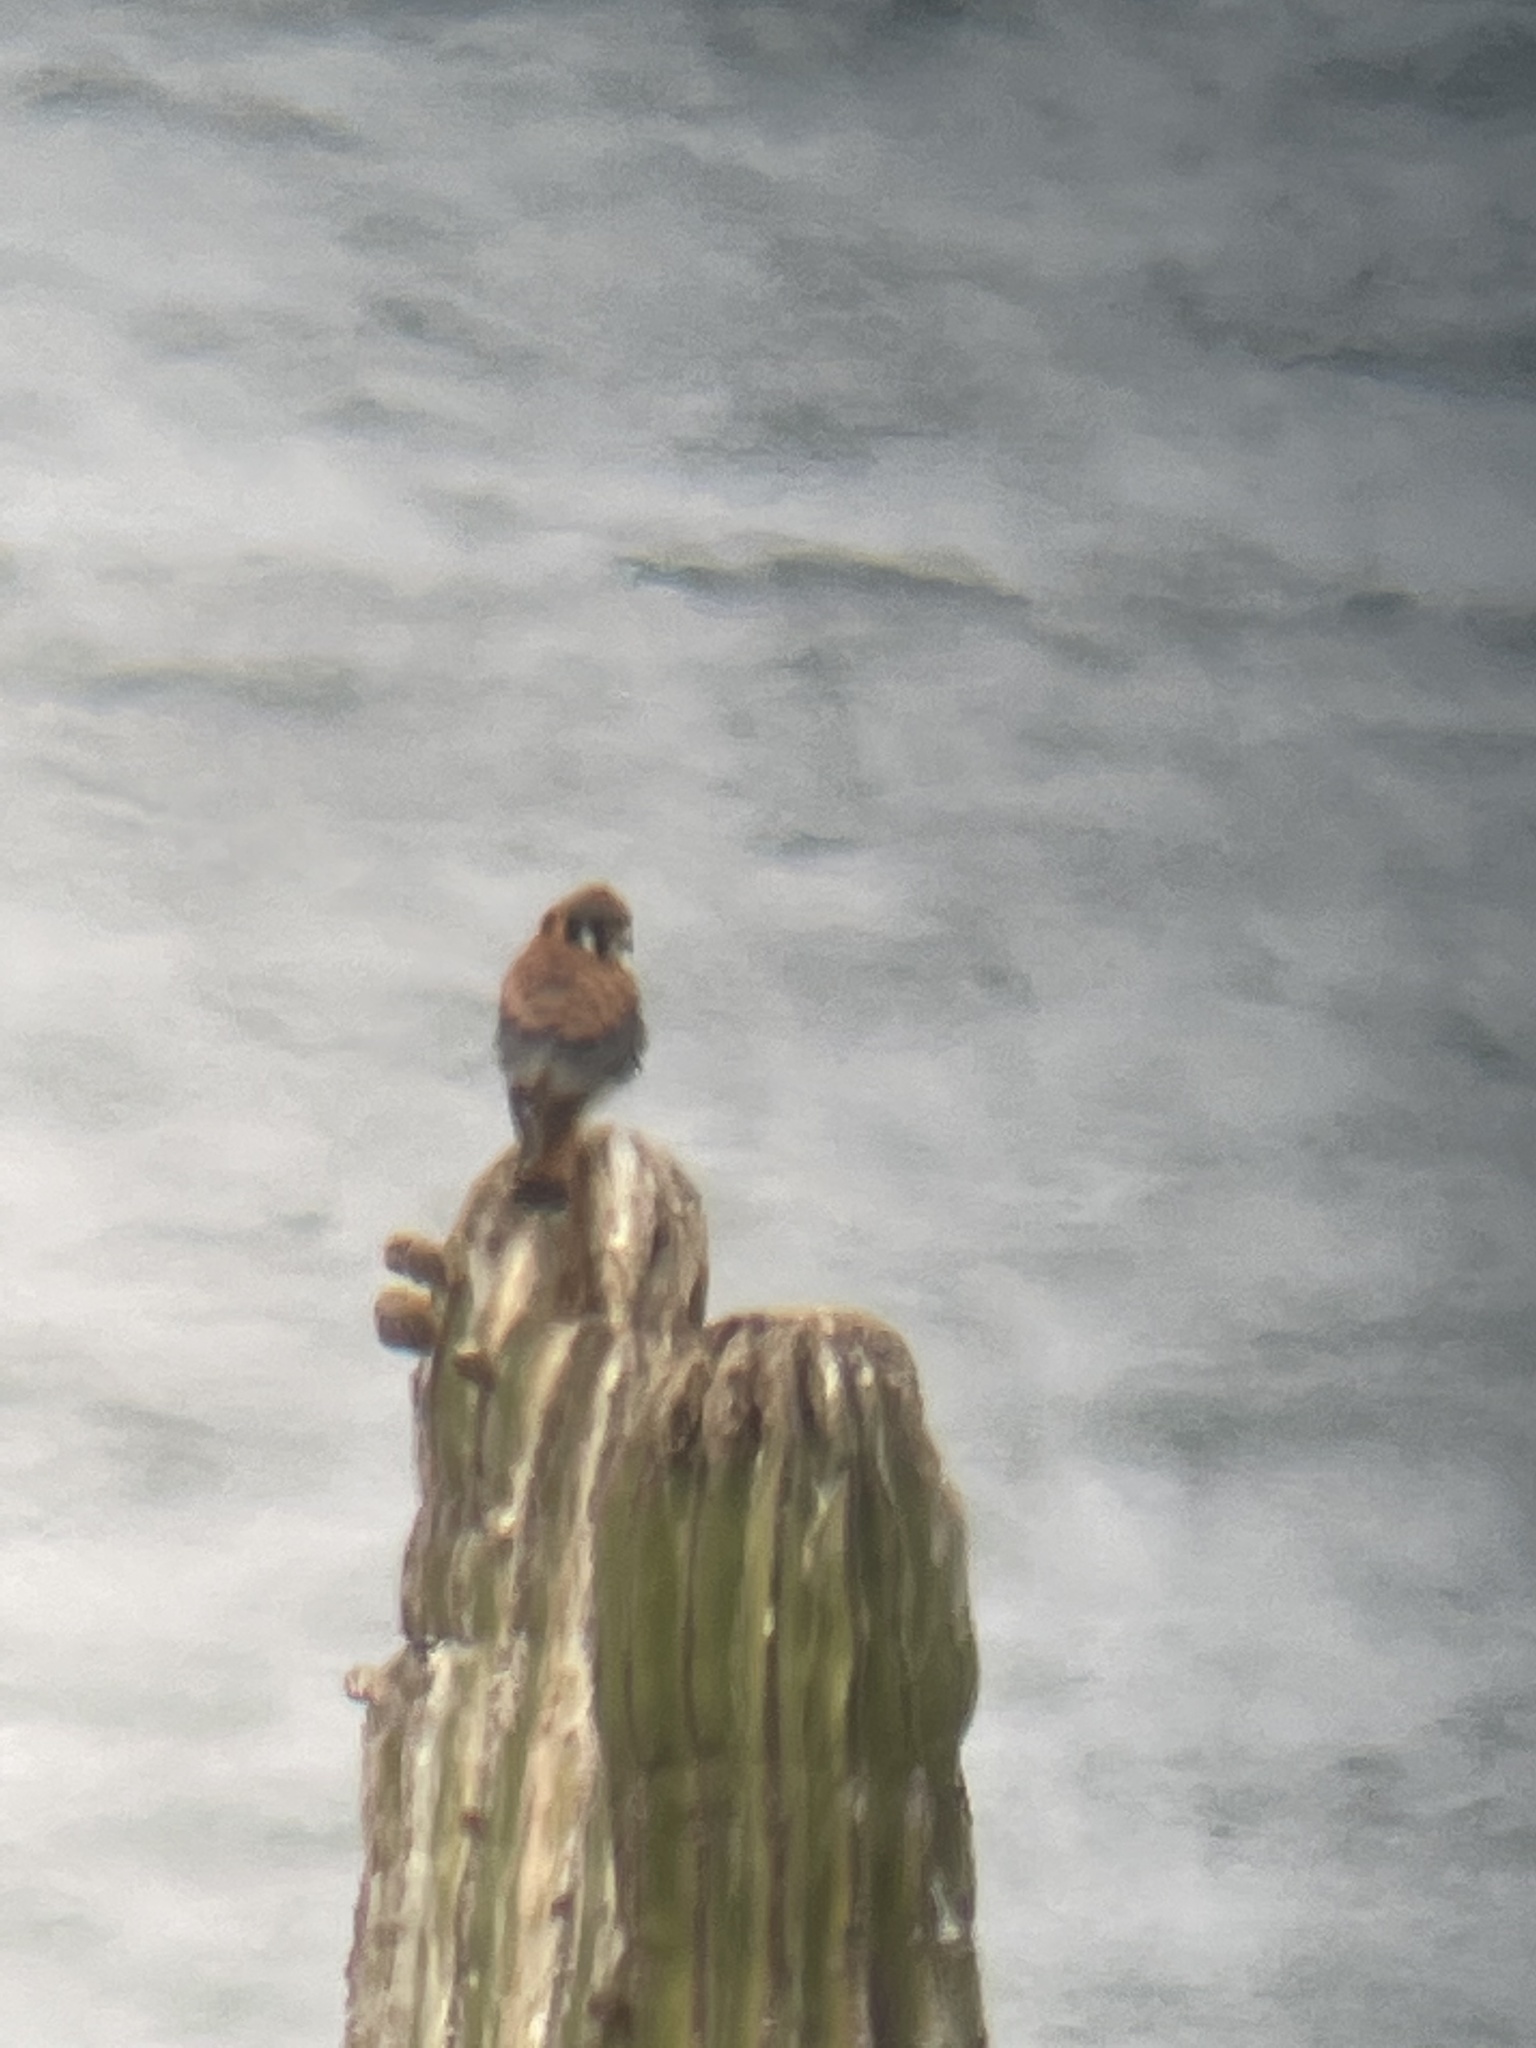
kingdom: Animalia
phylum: Chordata
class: Aves
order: Falconiformes
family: Falconidae
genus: Falco
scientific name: Falco sparverius
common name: American kestrel
